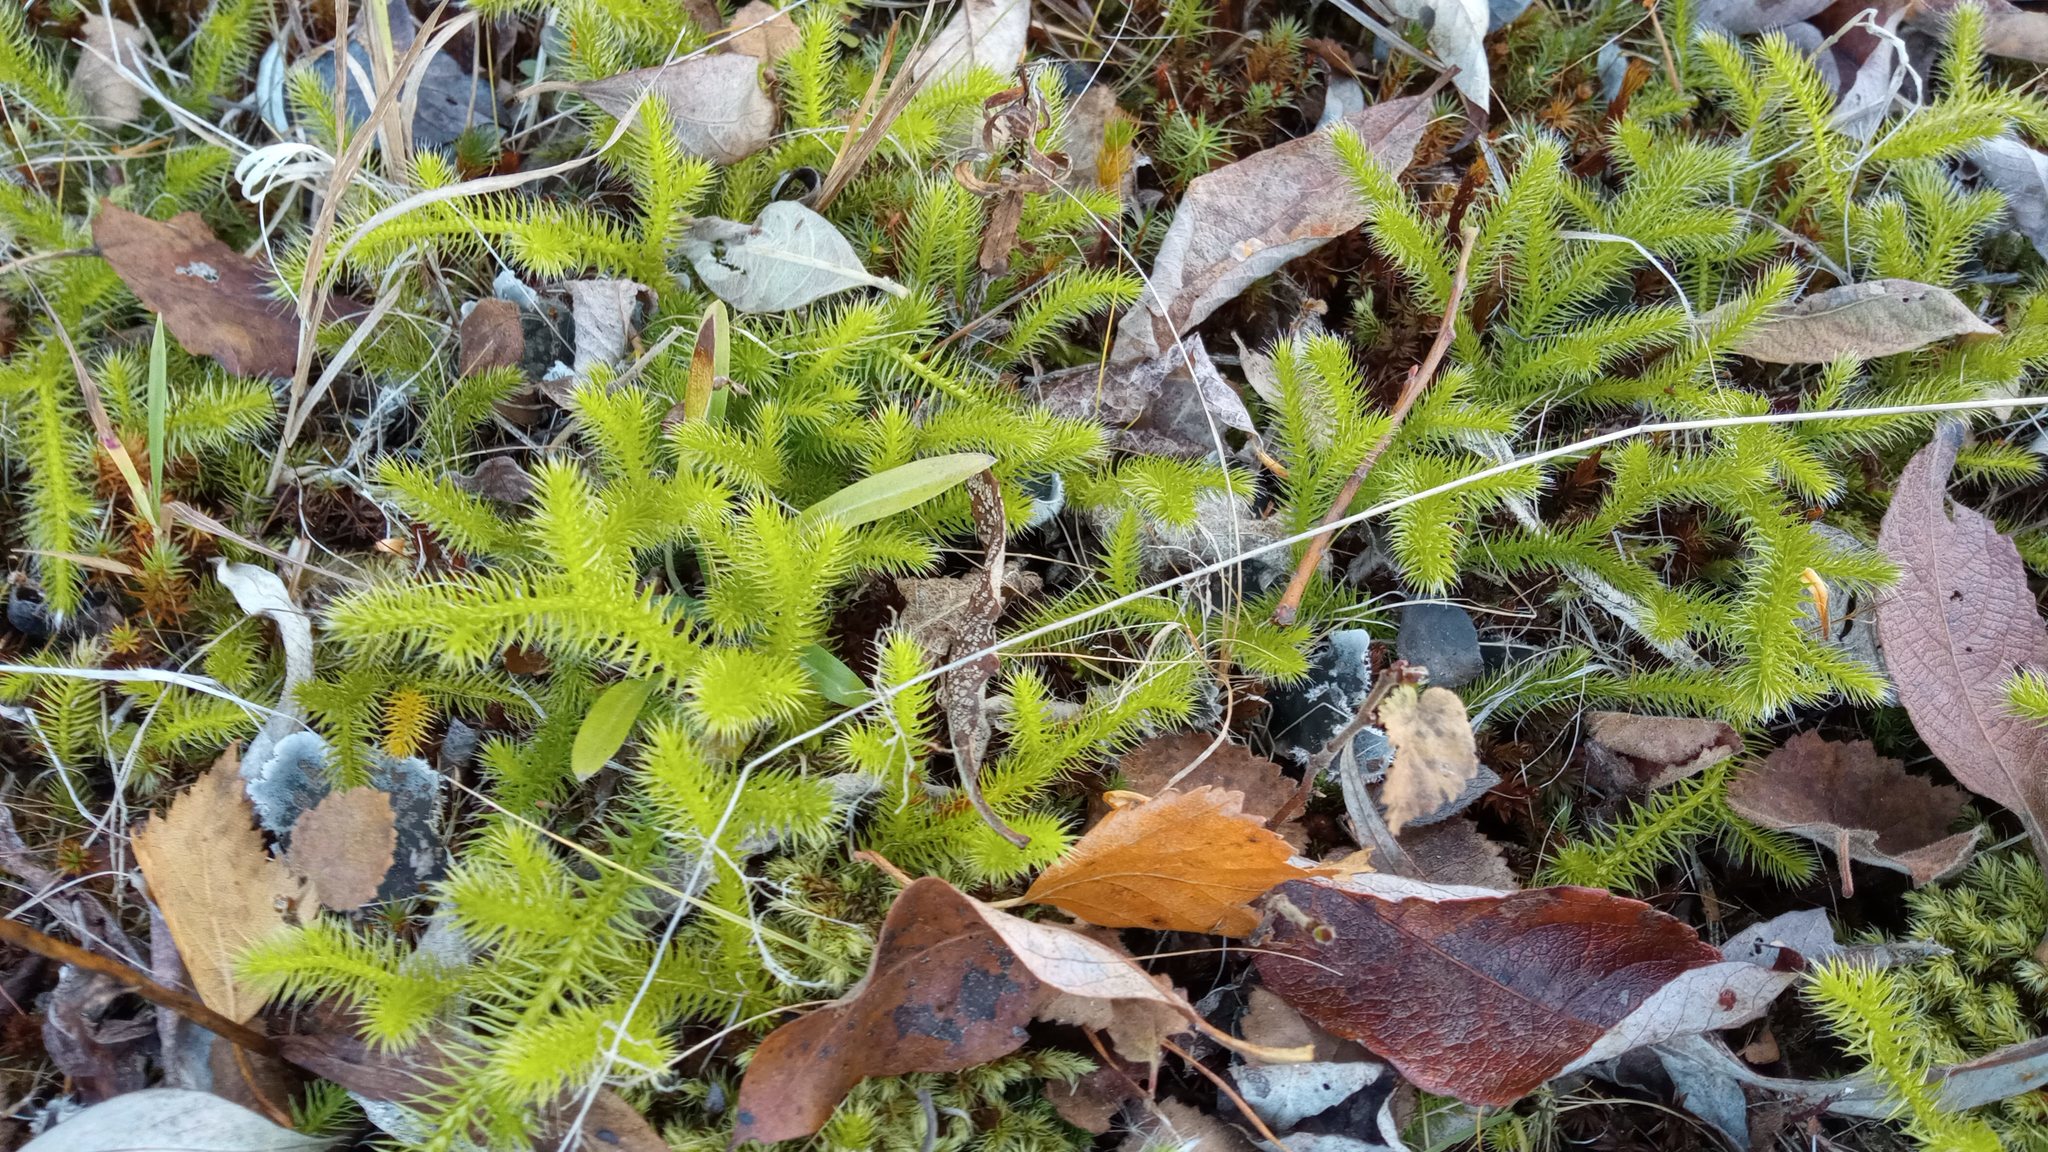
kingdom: Plantae
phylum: Tracheophyta
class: Lycopodiopsida
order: Lycopodiales
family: Lycopodiaceae
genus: Lycopodium
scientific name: Lycopodium clavatum
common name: Stag's-horn clubmoss
